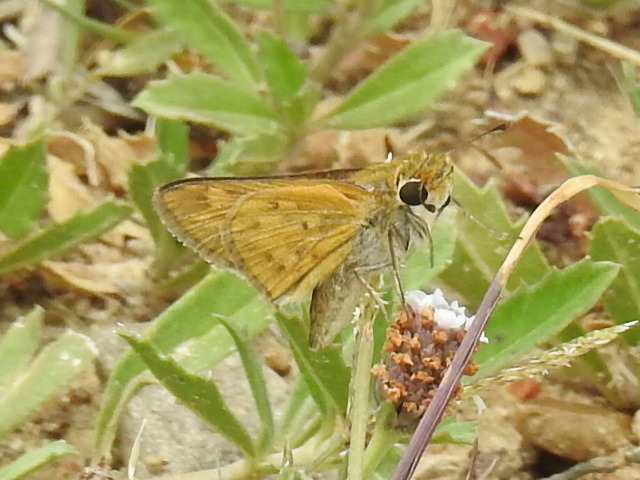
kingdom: Animalia
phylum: Arthropoda
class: Insecta
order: Lepidoptera
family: Hesperiidae
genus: Hylephila
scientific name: Hylephila phyleus
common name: Fiery skipper
